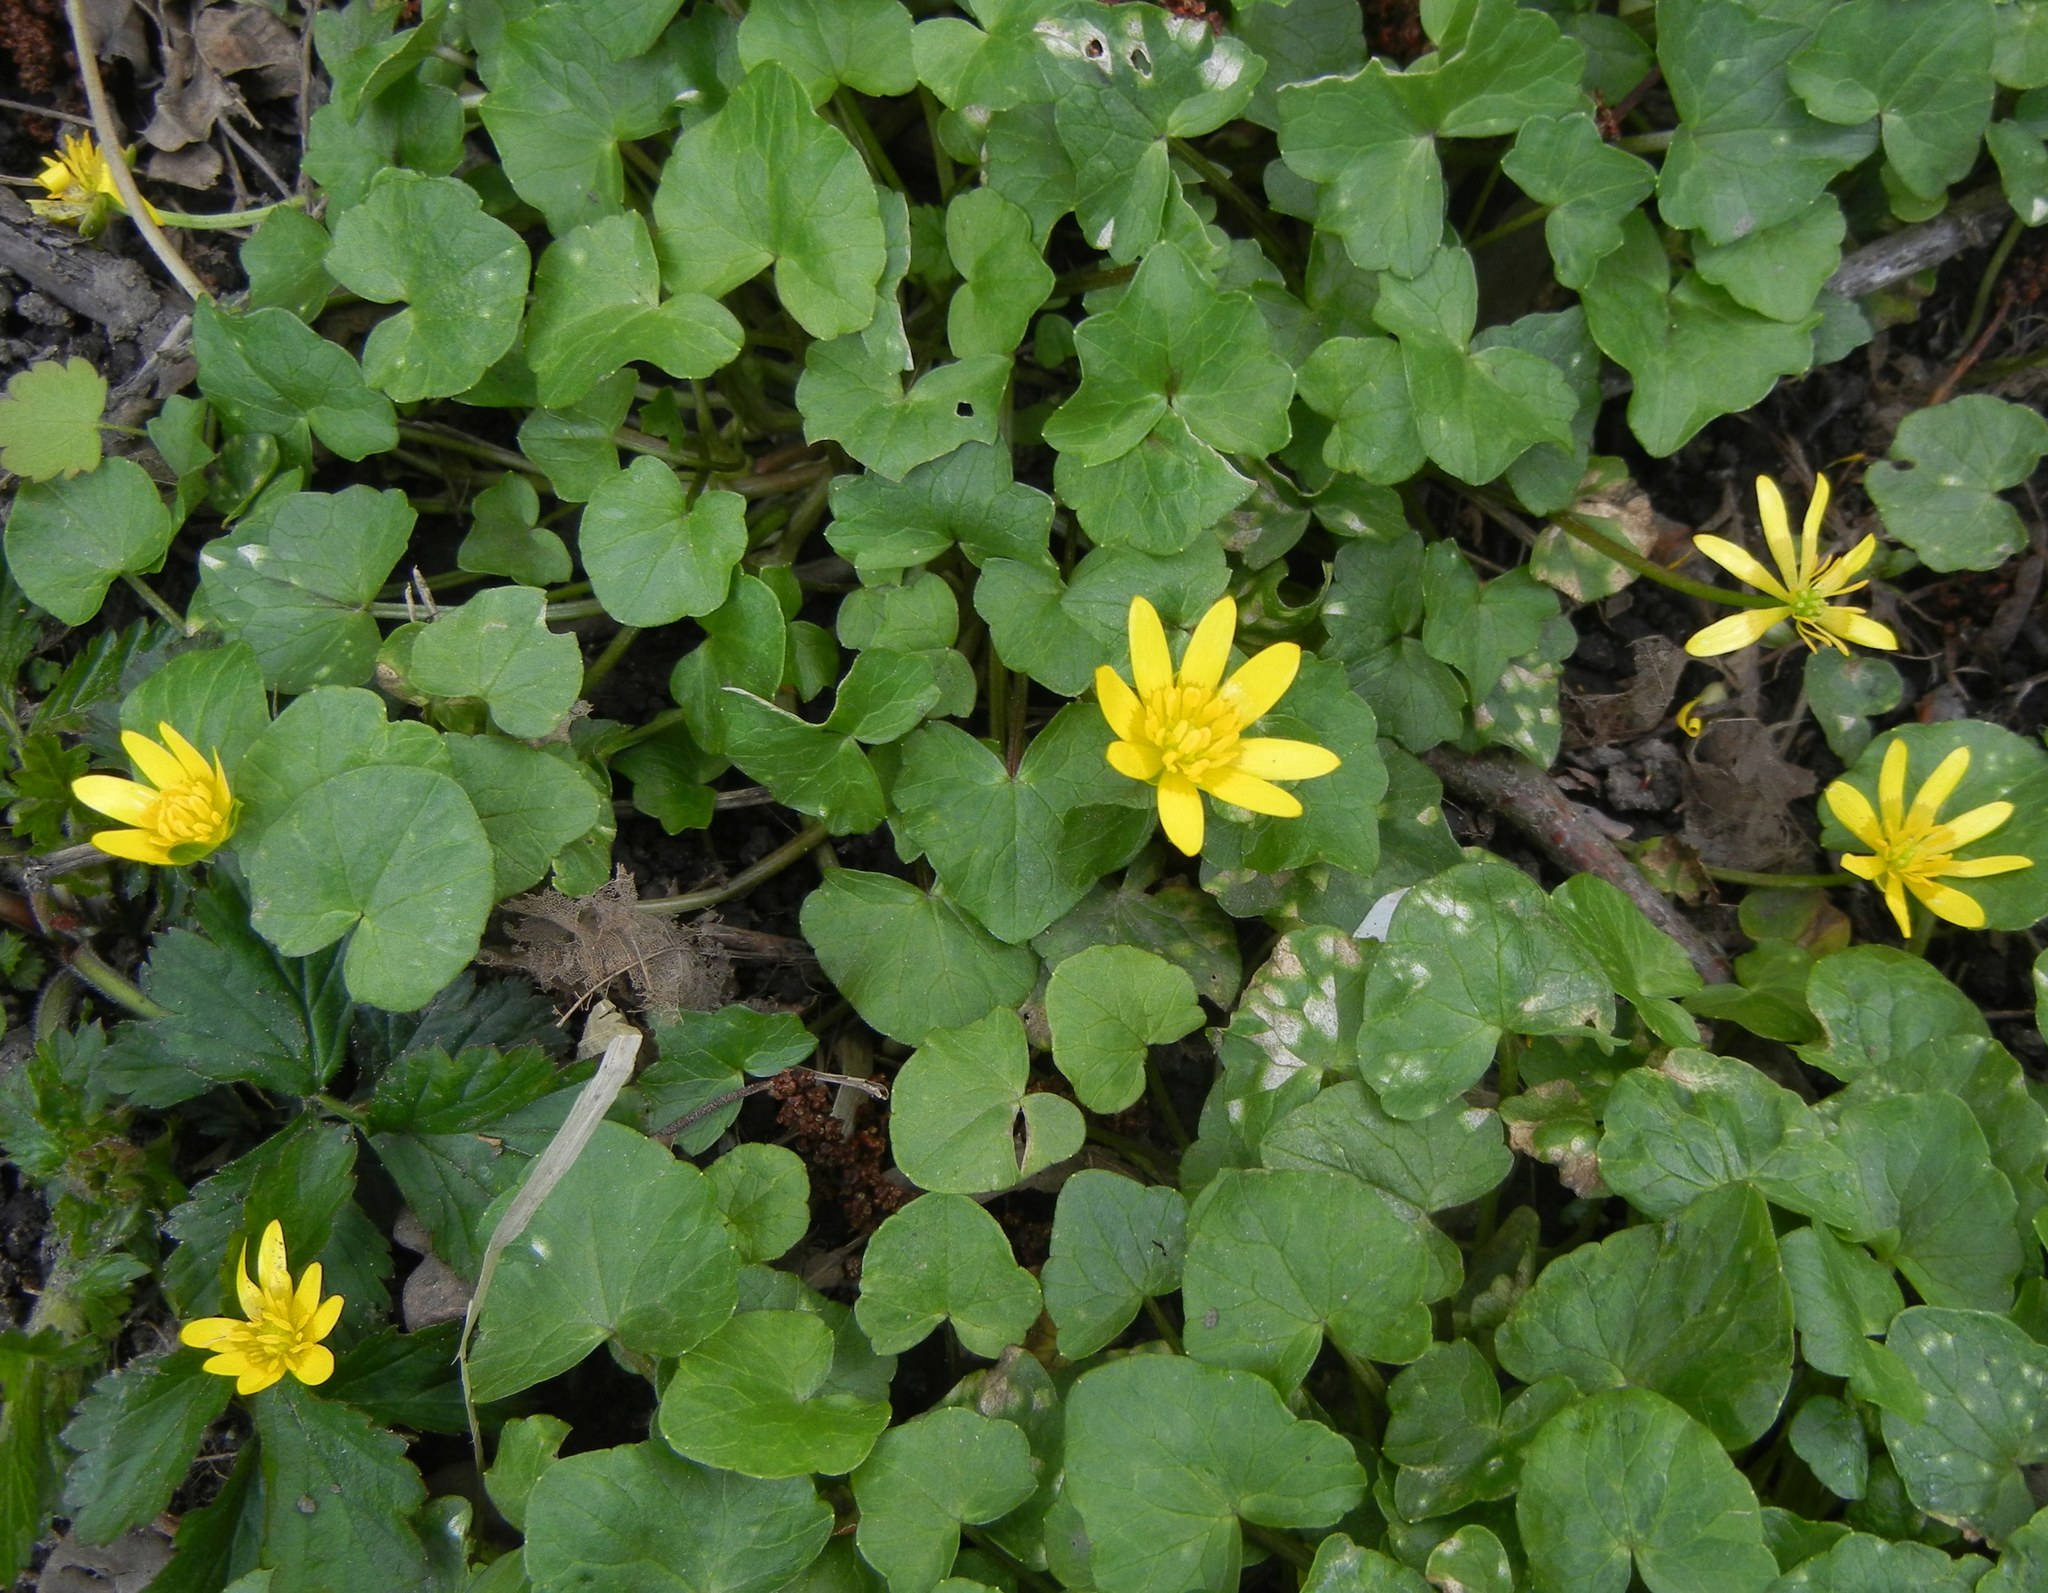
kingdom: Plantae
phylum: Tracheophyta
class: Magnoliopsida
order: Ranunculales
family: Ranunculaceae
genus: Ficaria
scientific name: Ficaria verna
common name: Lesser celandine
